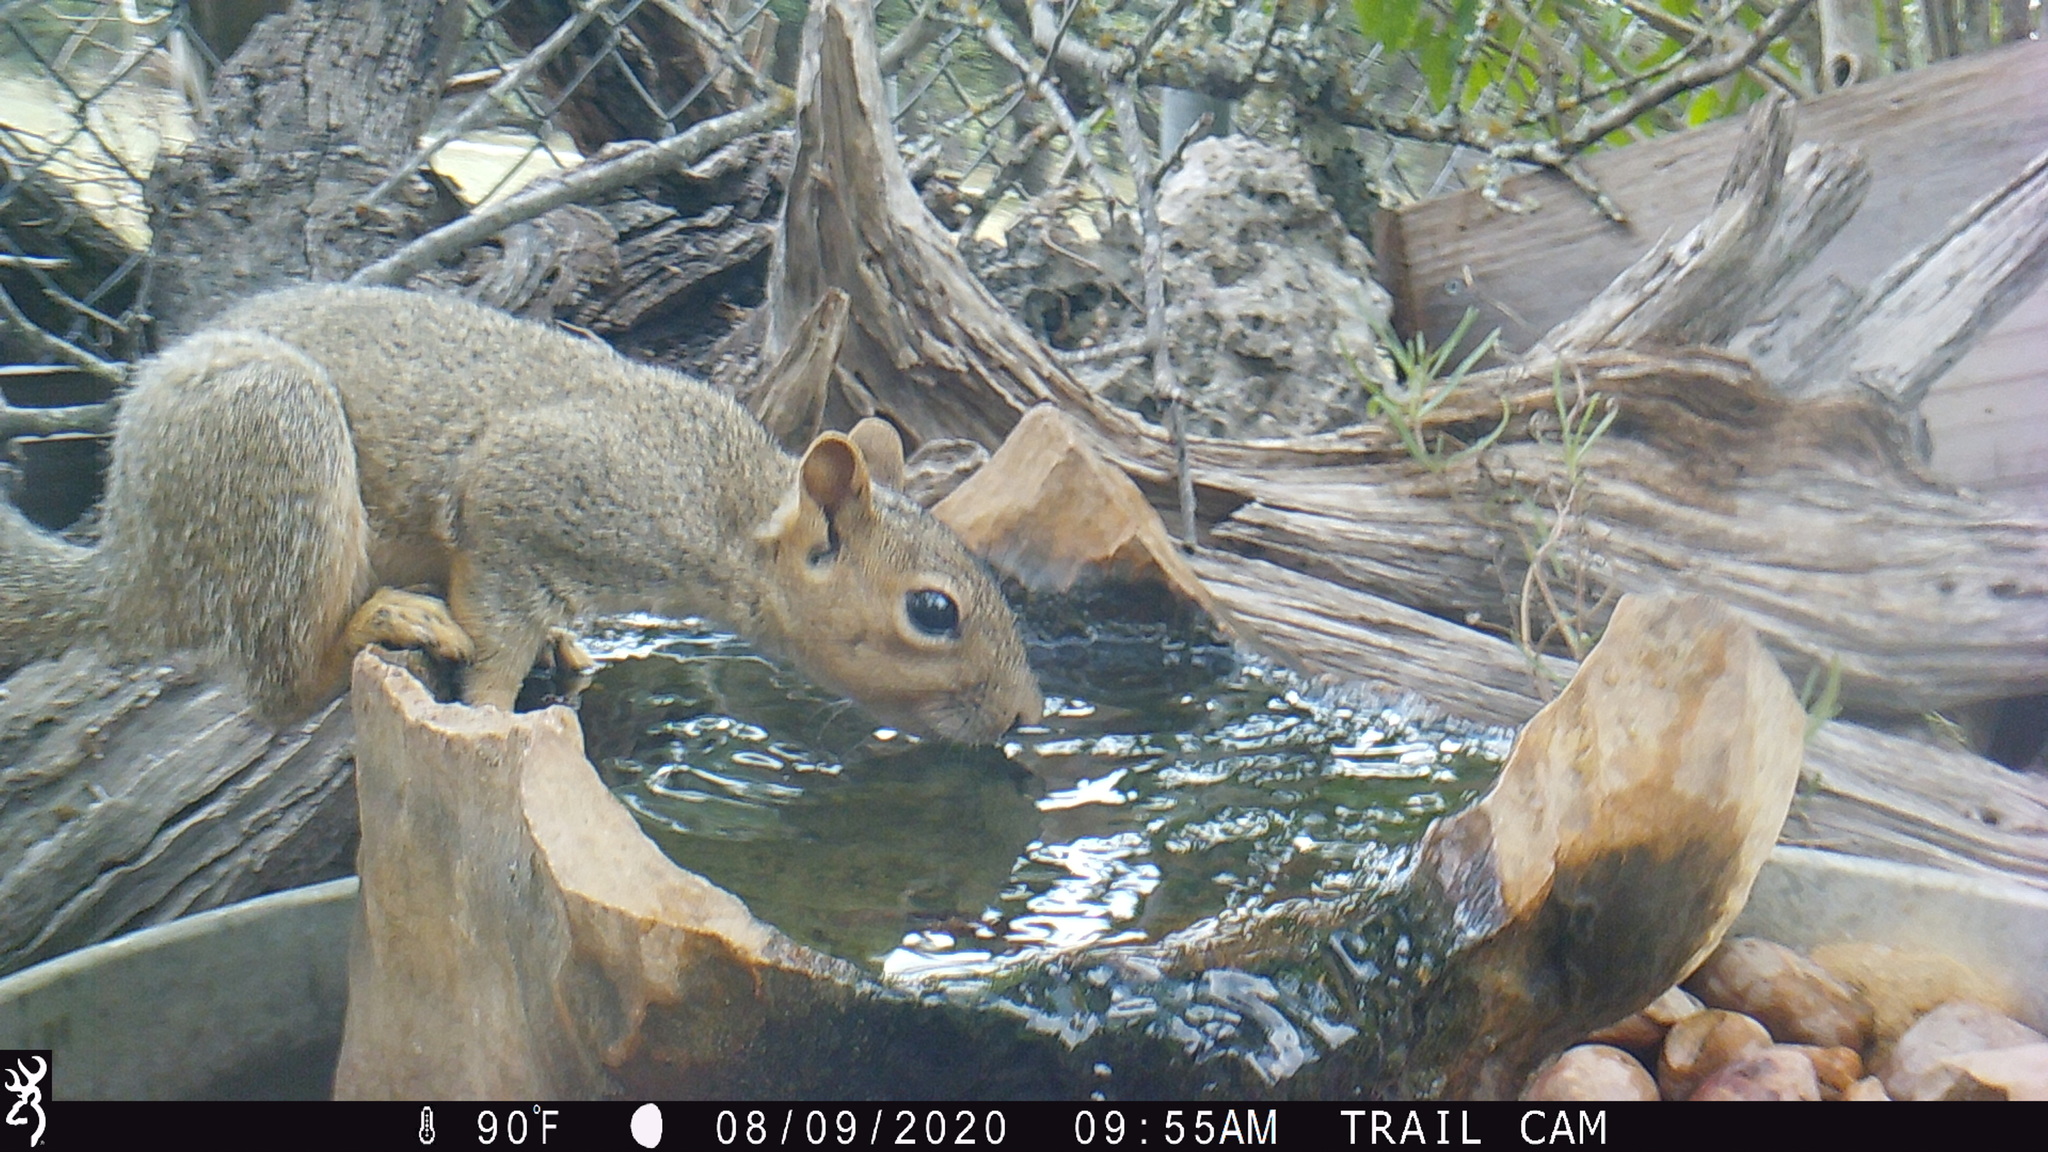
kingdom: Animalia
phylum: Chordata
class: Mammalia
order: Rodentia
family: Sciuridae
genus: Sciurus
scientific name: Sciurus niger
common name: Fox squirrel
